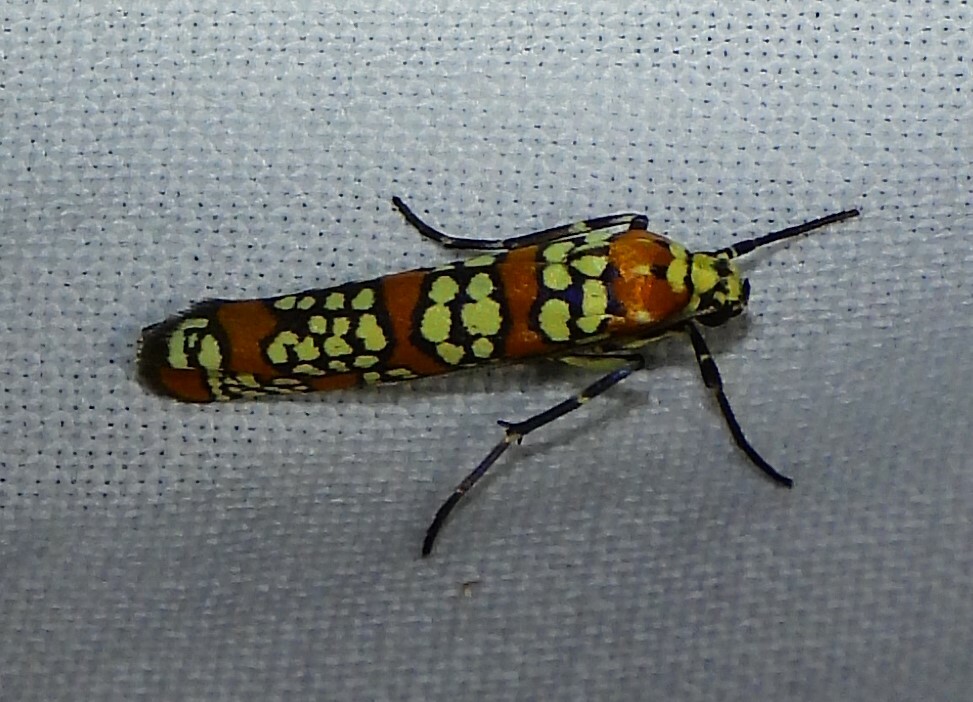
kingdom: Animalia
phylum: Arthropoda
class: Insecta
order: Lepidoptera
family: Attevidae
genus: Atteva
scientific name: Atteva punctella
